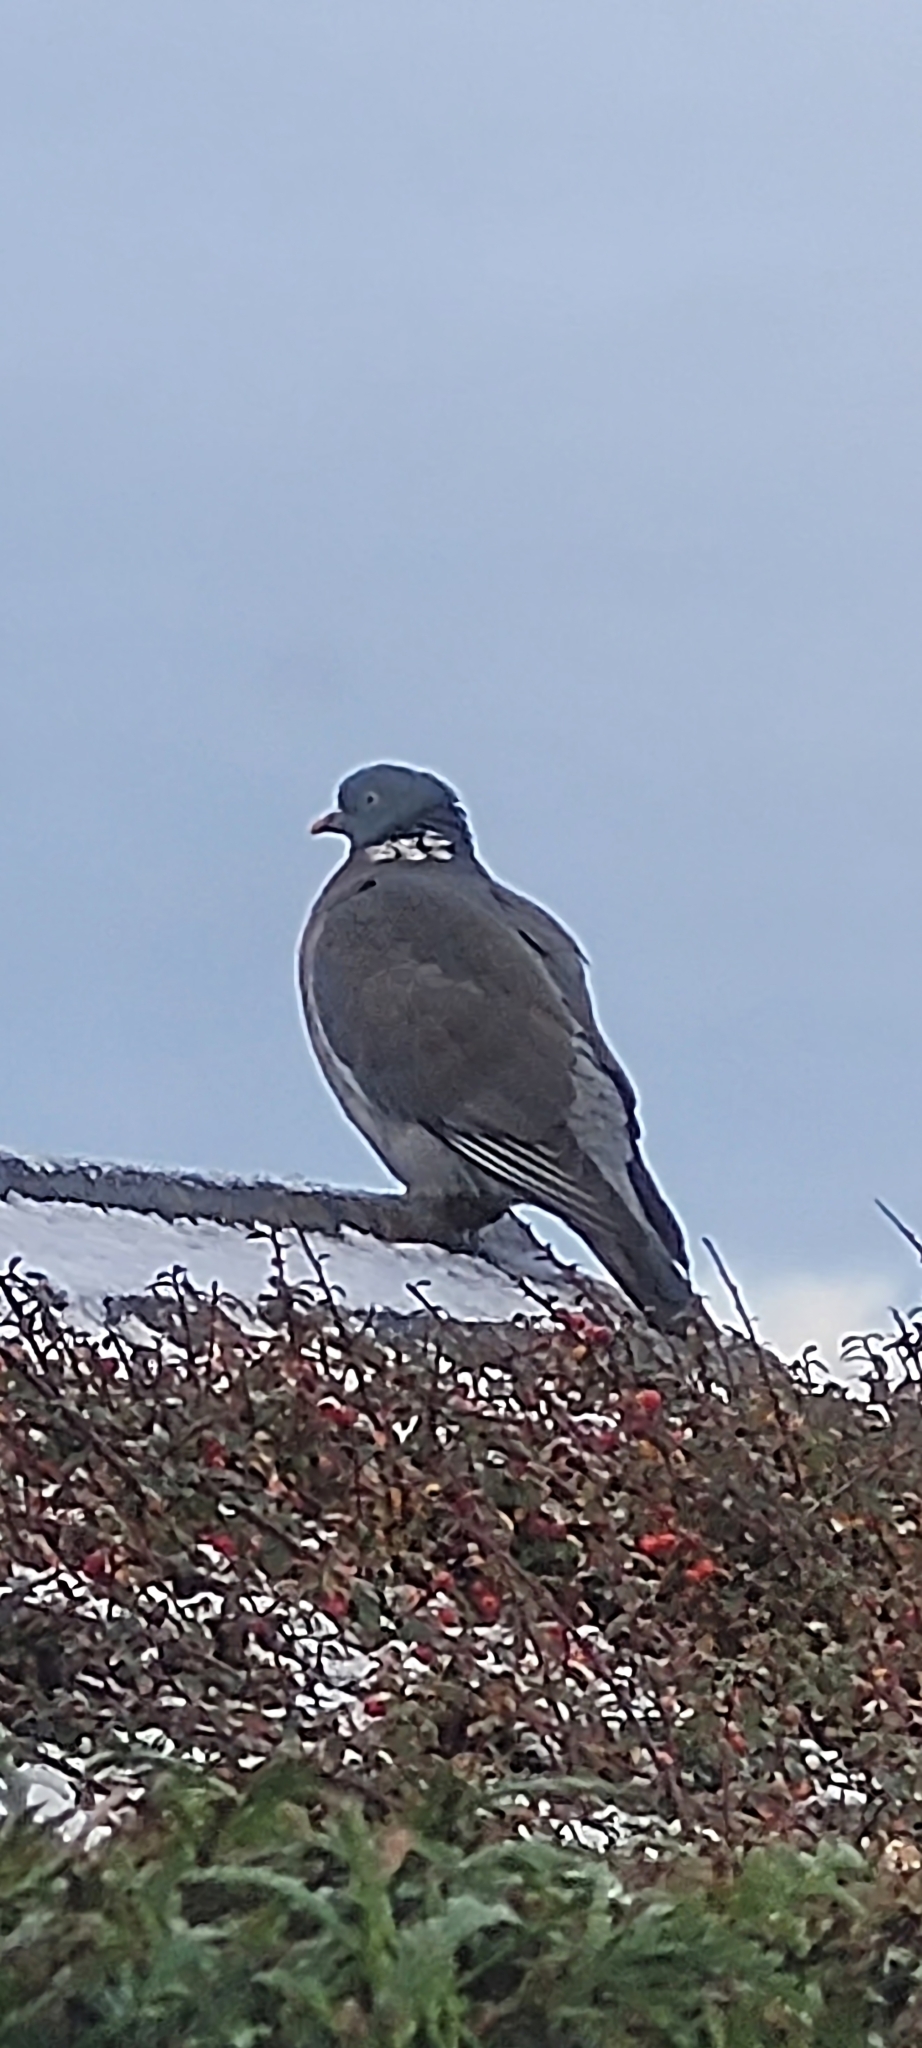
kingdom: Animalia
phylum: Chordata
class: Aves
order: Columbiformes
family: Columbidae
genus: Columba
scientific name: Columba palumbus
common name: Common wood pigeon
